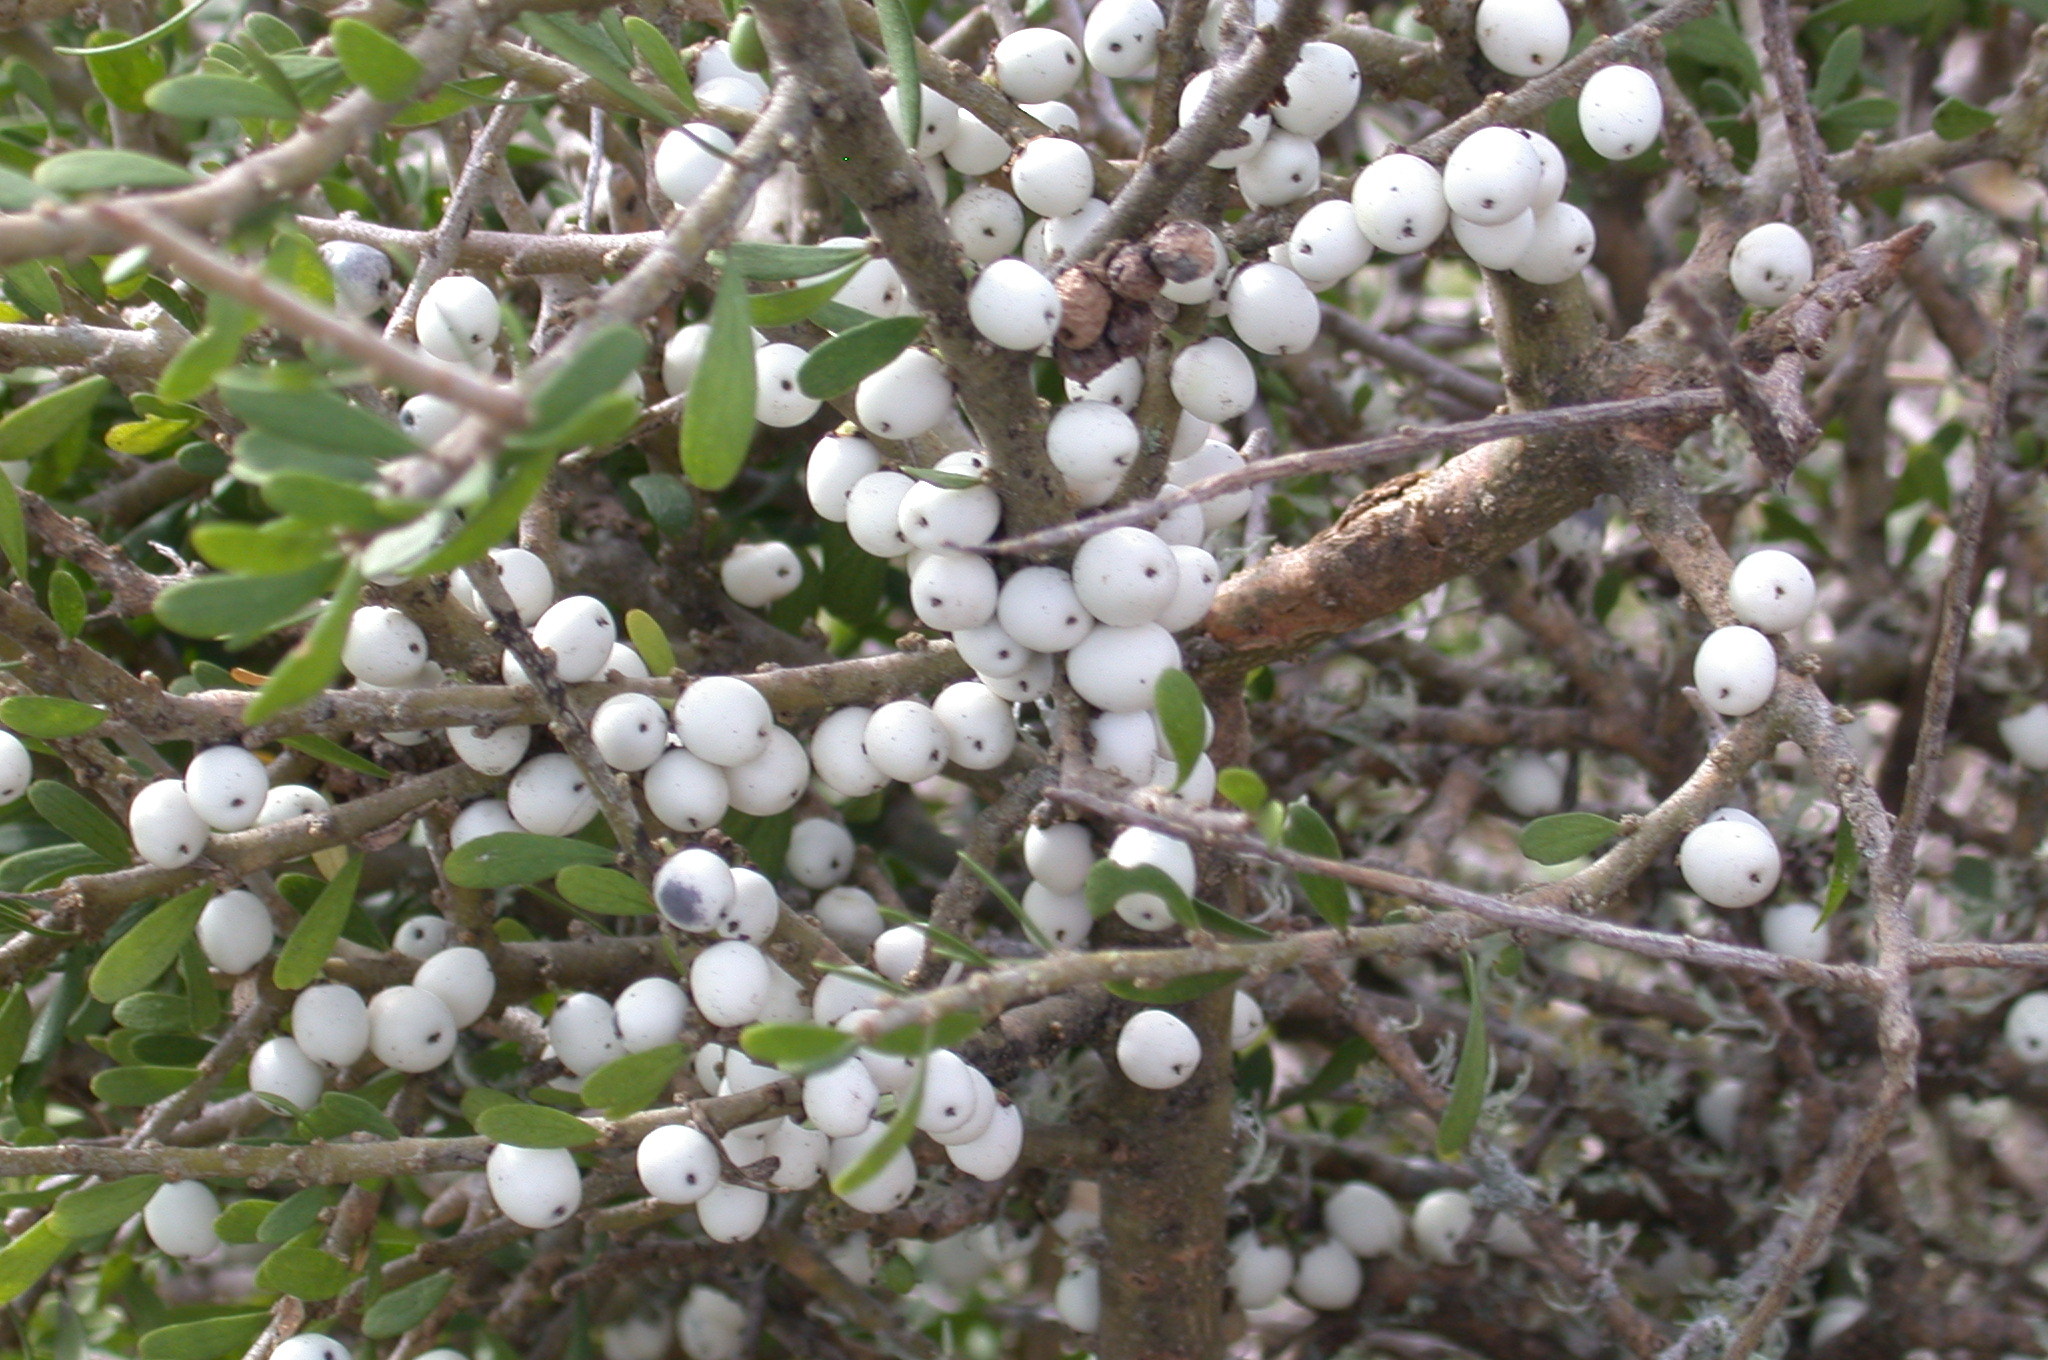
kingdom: Plantae
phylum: Tracheophyta
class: Magnoliopsida
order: Malpighiales
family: Violaceae
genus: Melicytus
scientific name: Melicytus alpinus
